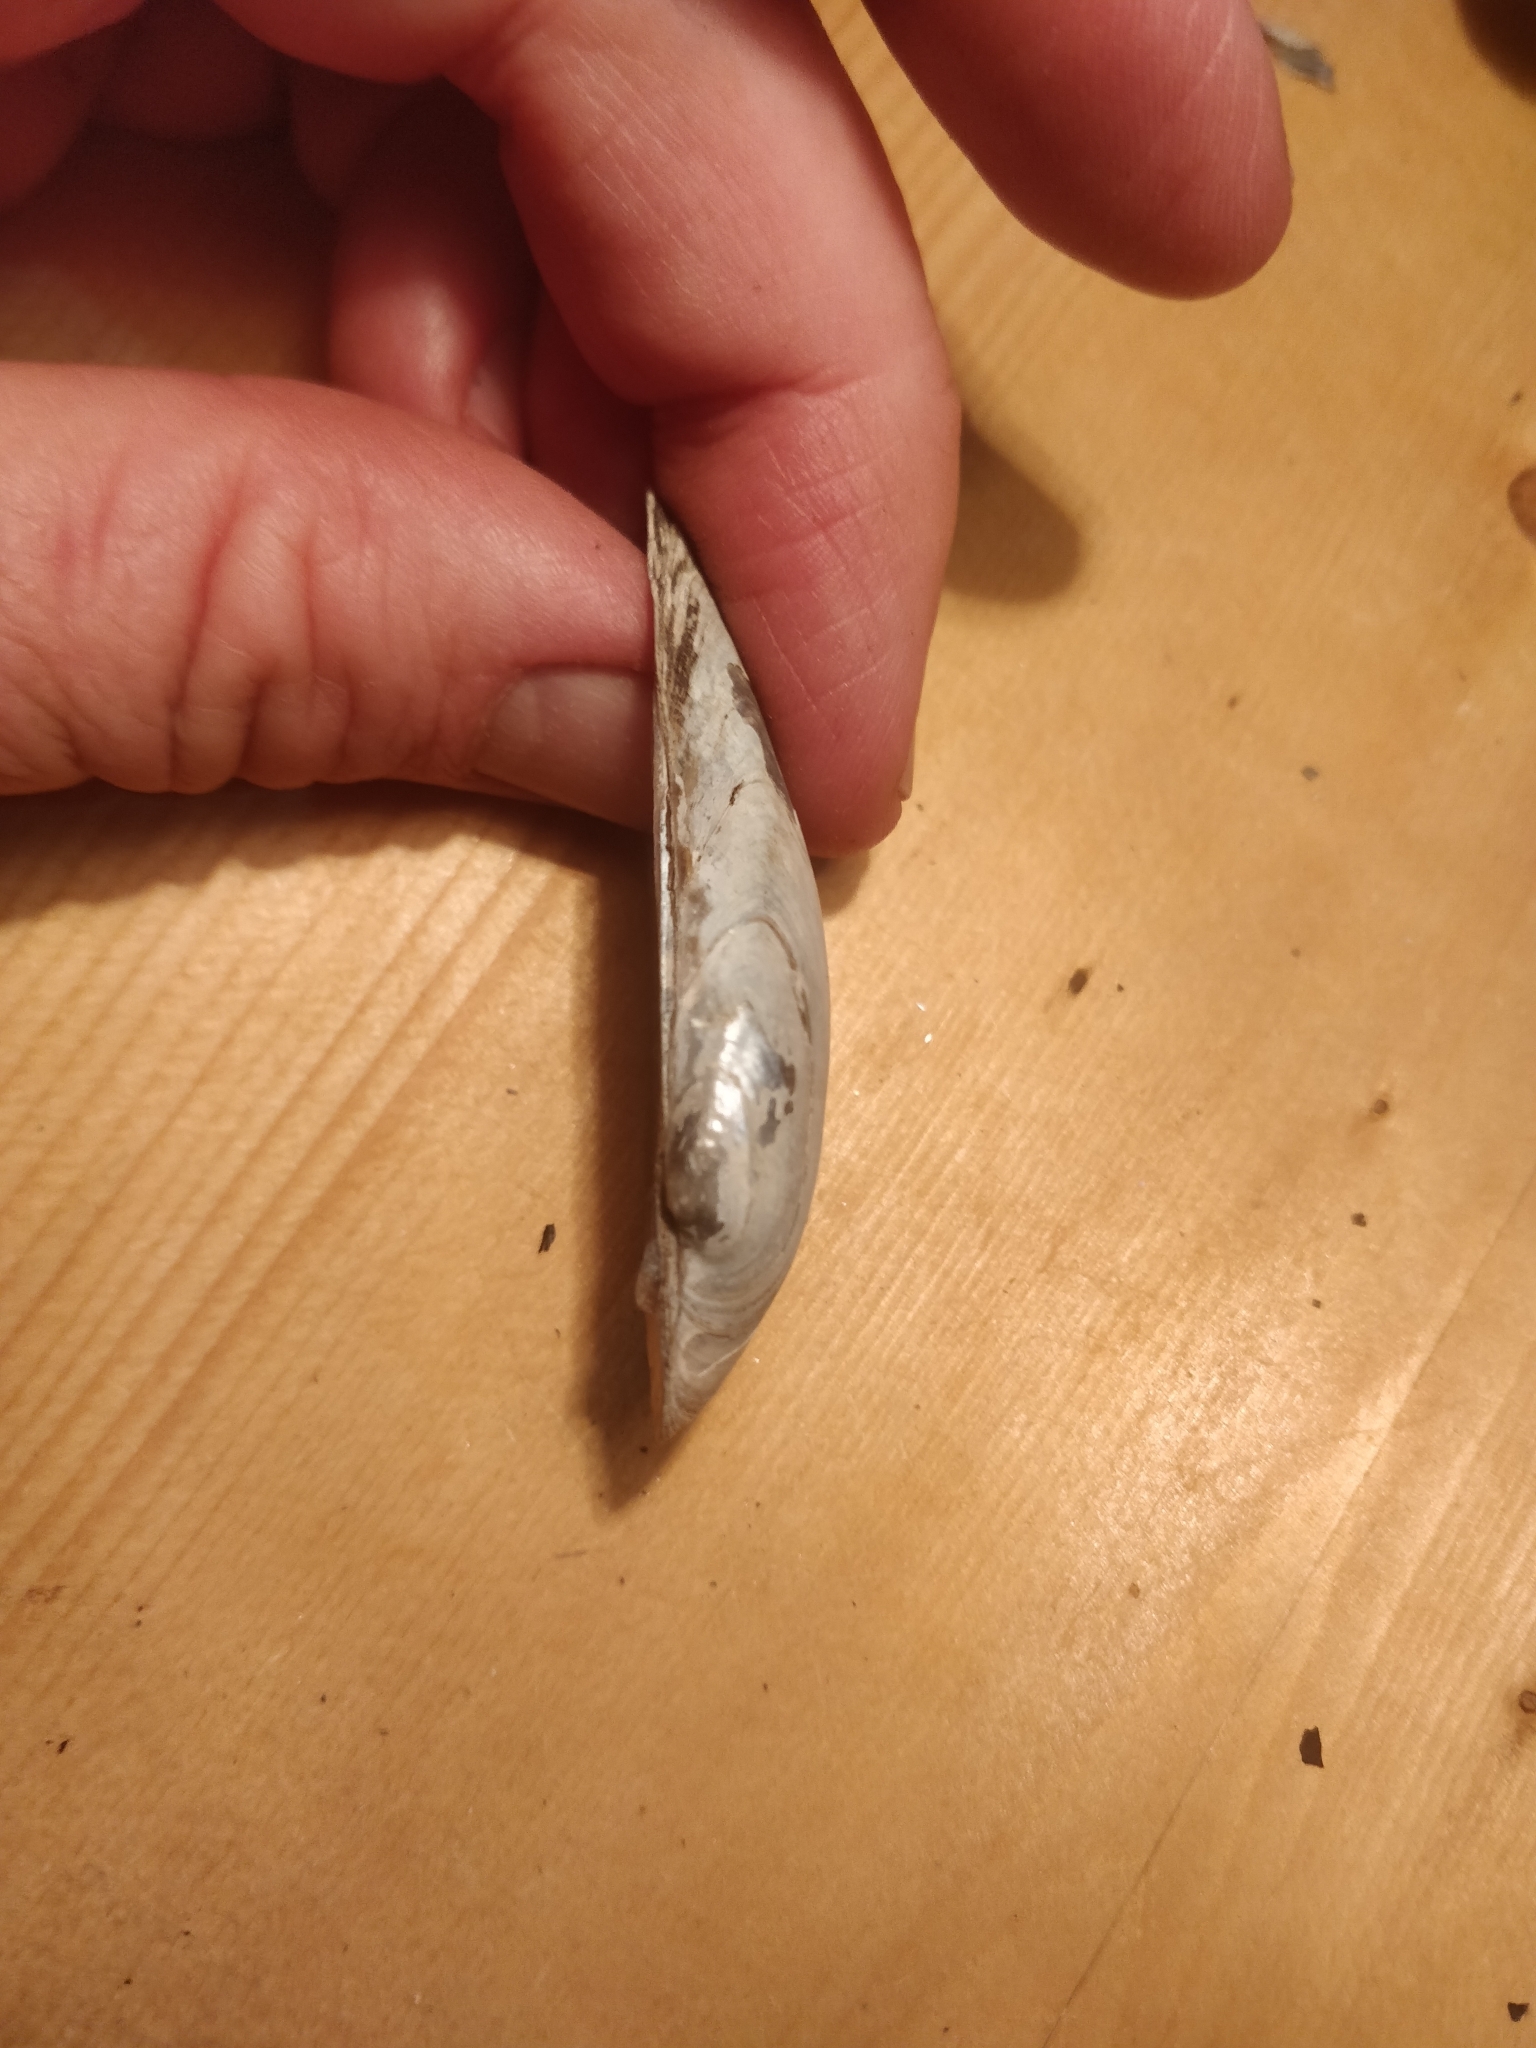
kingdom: Animalia
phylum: Mollusca
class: Bivalvia
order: Unionida
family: Unionidae
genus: Lampsilis
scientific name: Lampsilis teres
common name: Yellow sandshell
